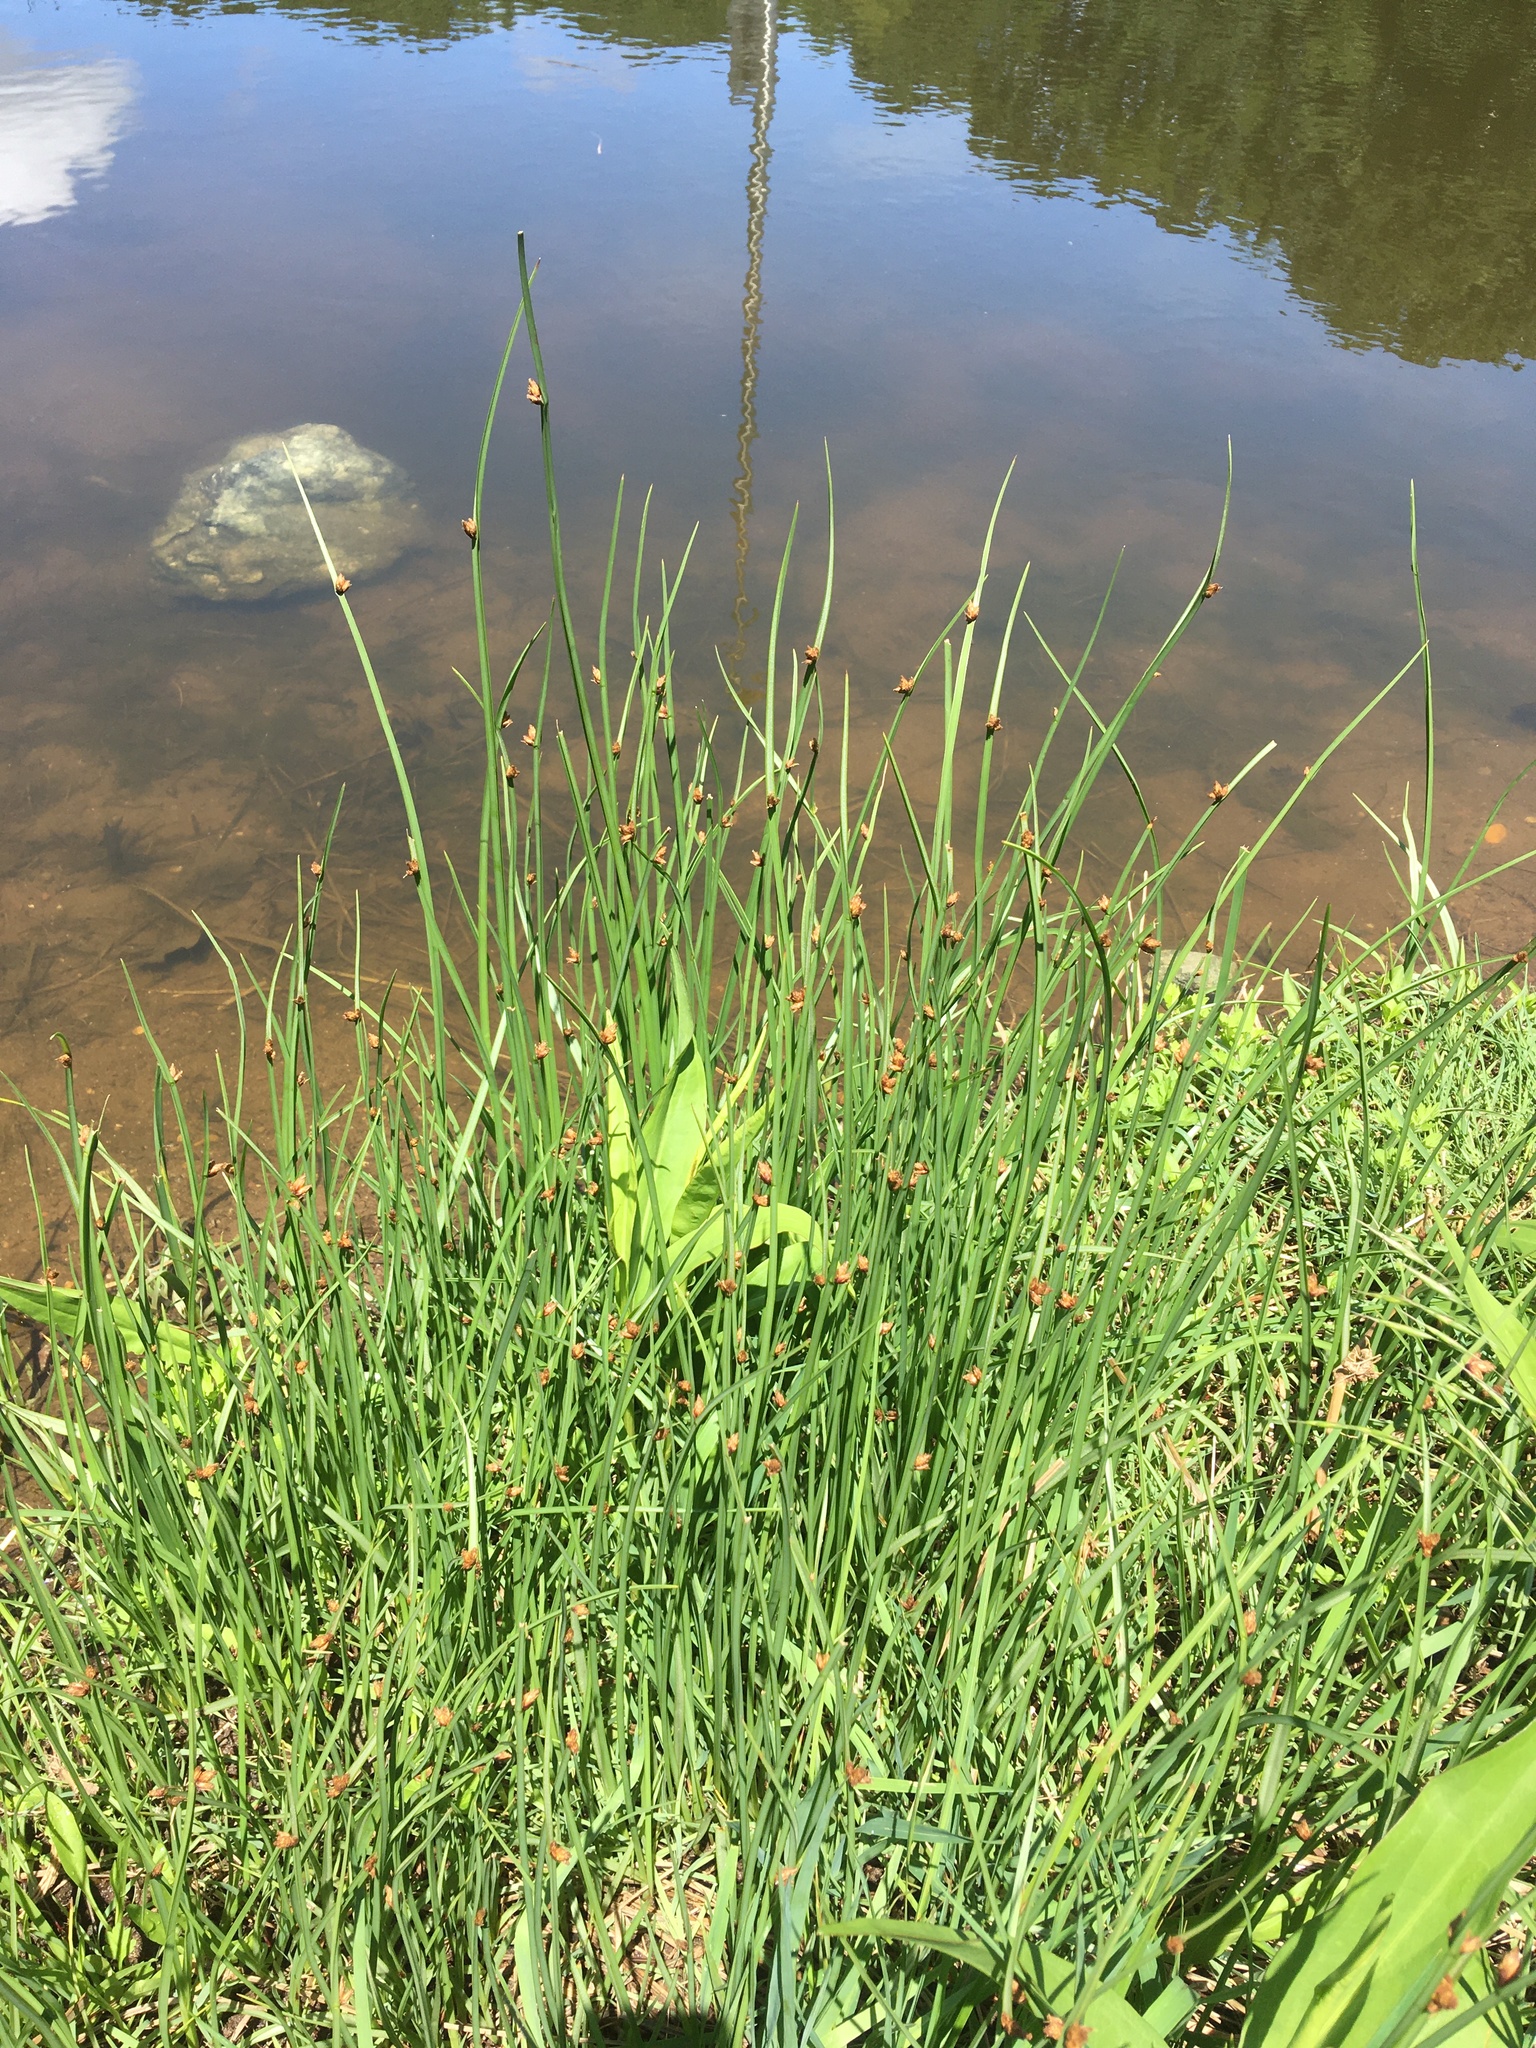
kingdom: Plantae
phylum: Tracheophyta
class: Liliopsida
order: Poales
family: Cyperaceae
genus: Schoenoplectus
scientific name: Schoenoplectus pungens
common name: Sharp club-rush
